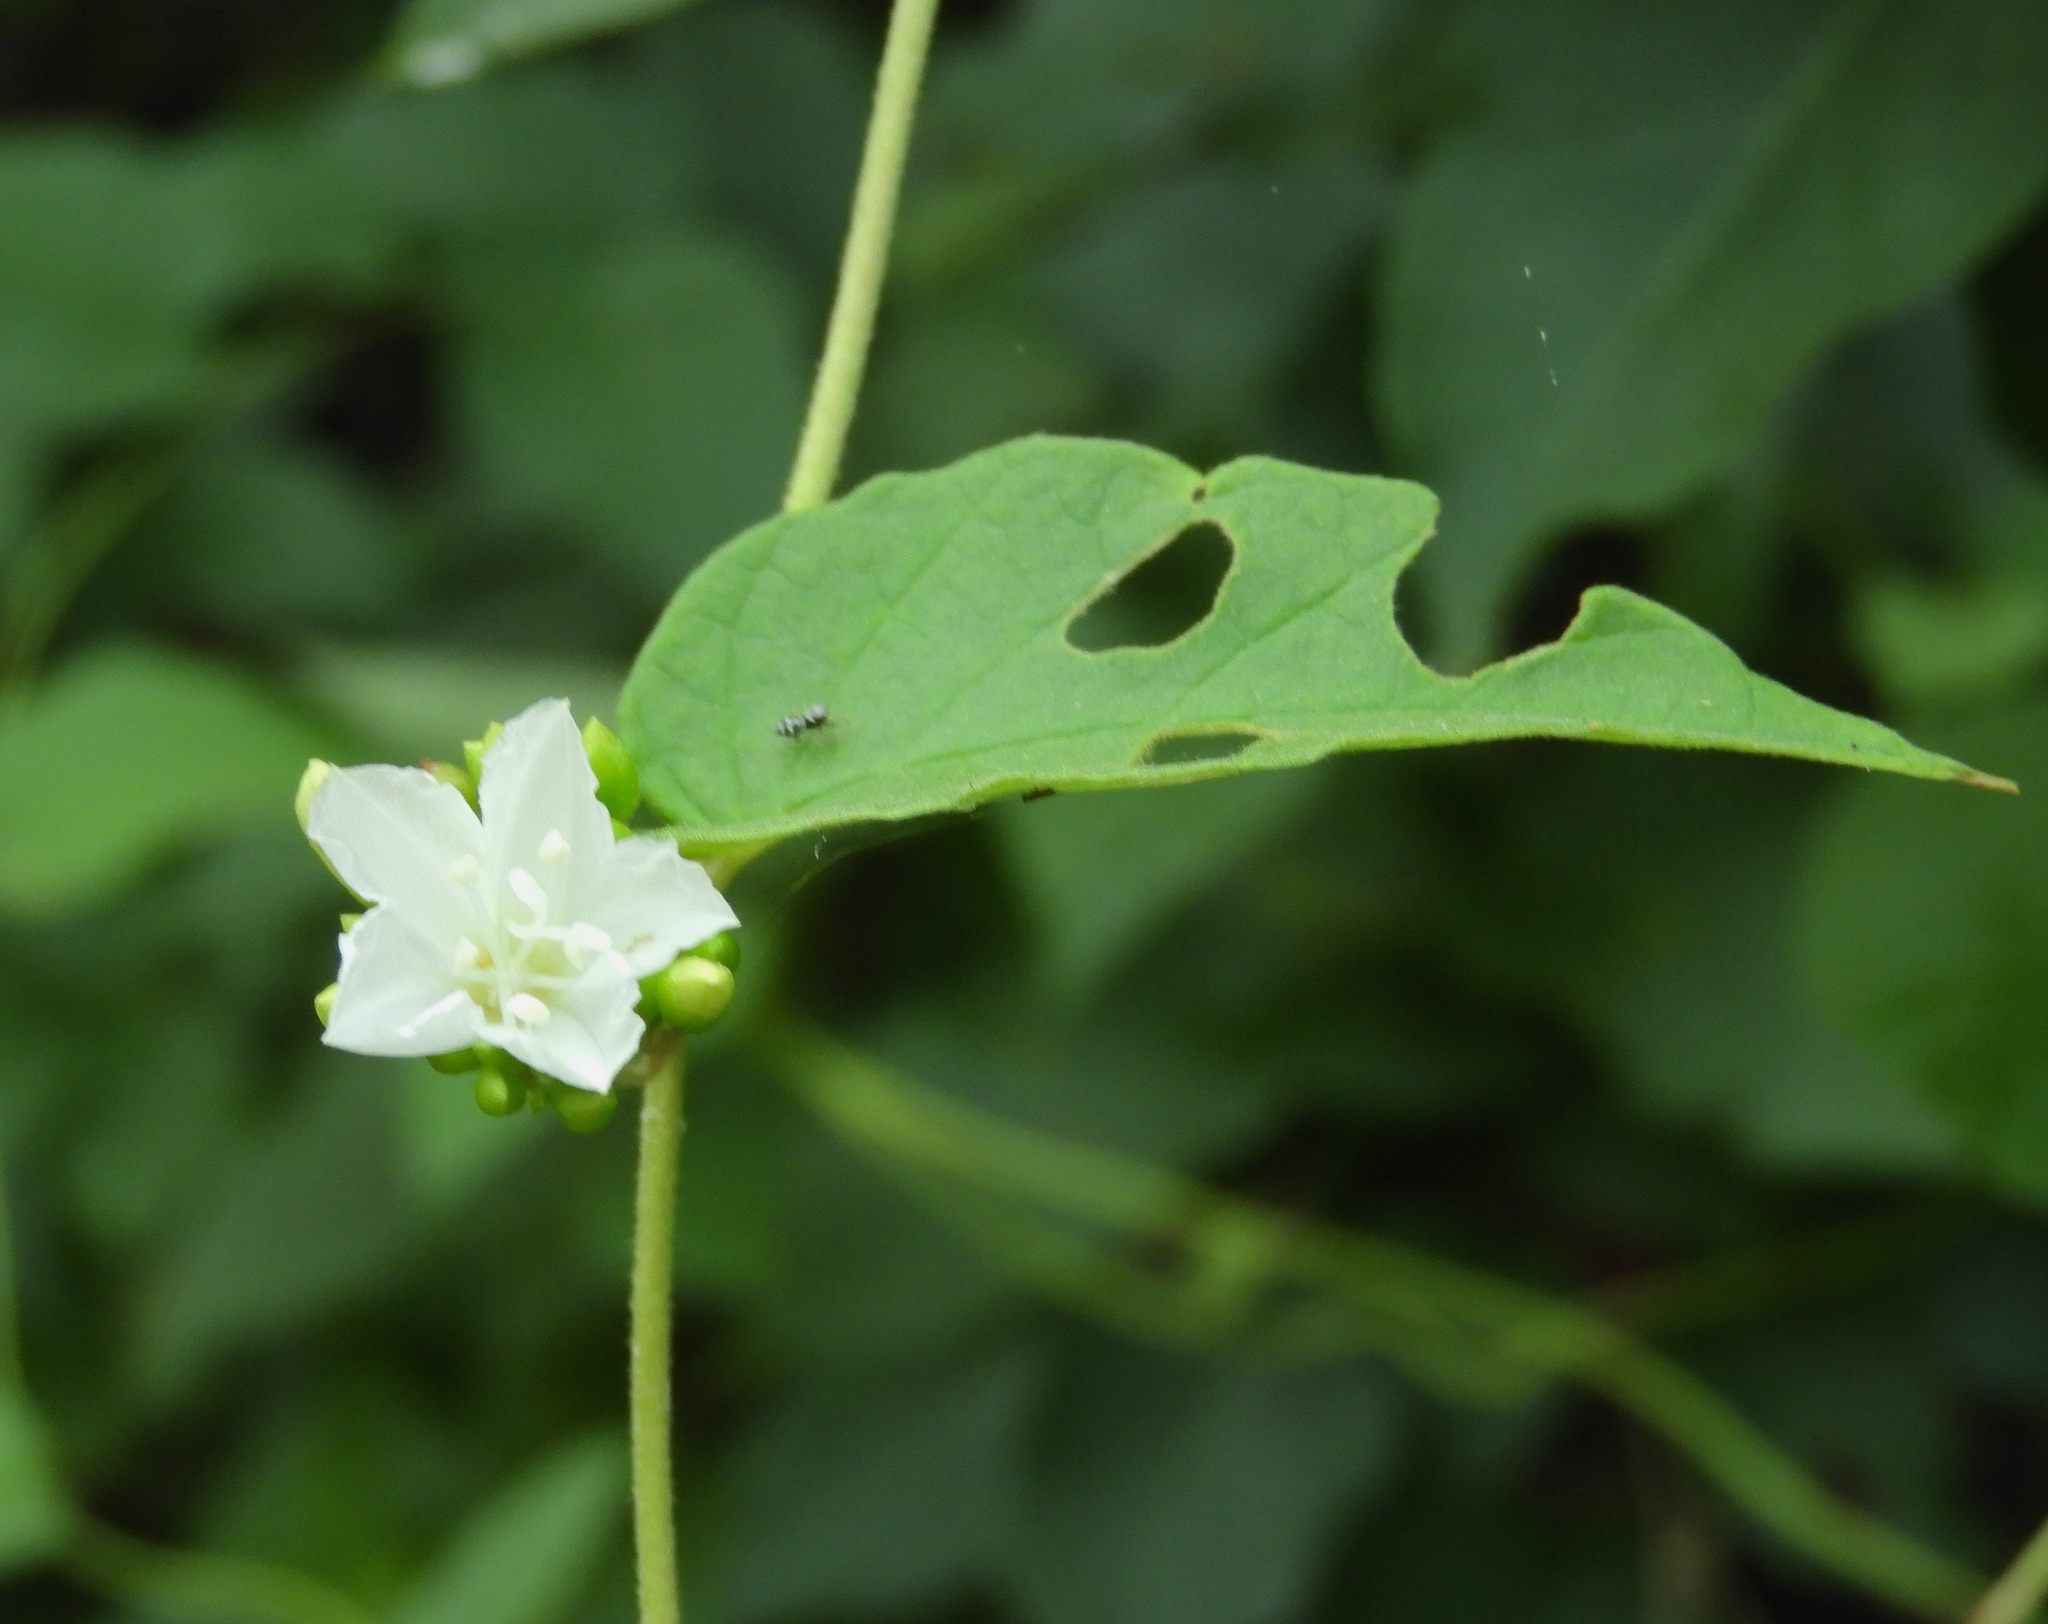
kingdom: Plantae
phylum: Tracheophyta
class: Magnoliopsida
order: Solanales
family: Convolvulaceae
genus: Jacquemontia
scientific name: Jacquemontia nodiflora
